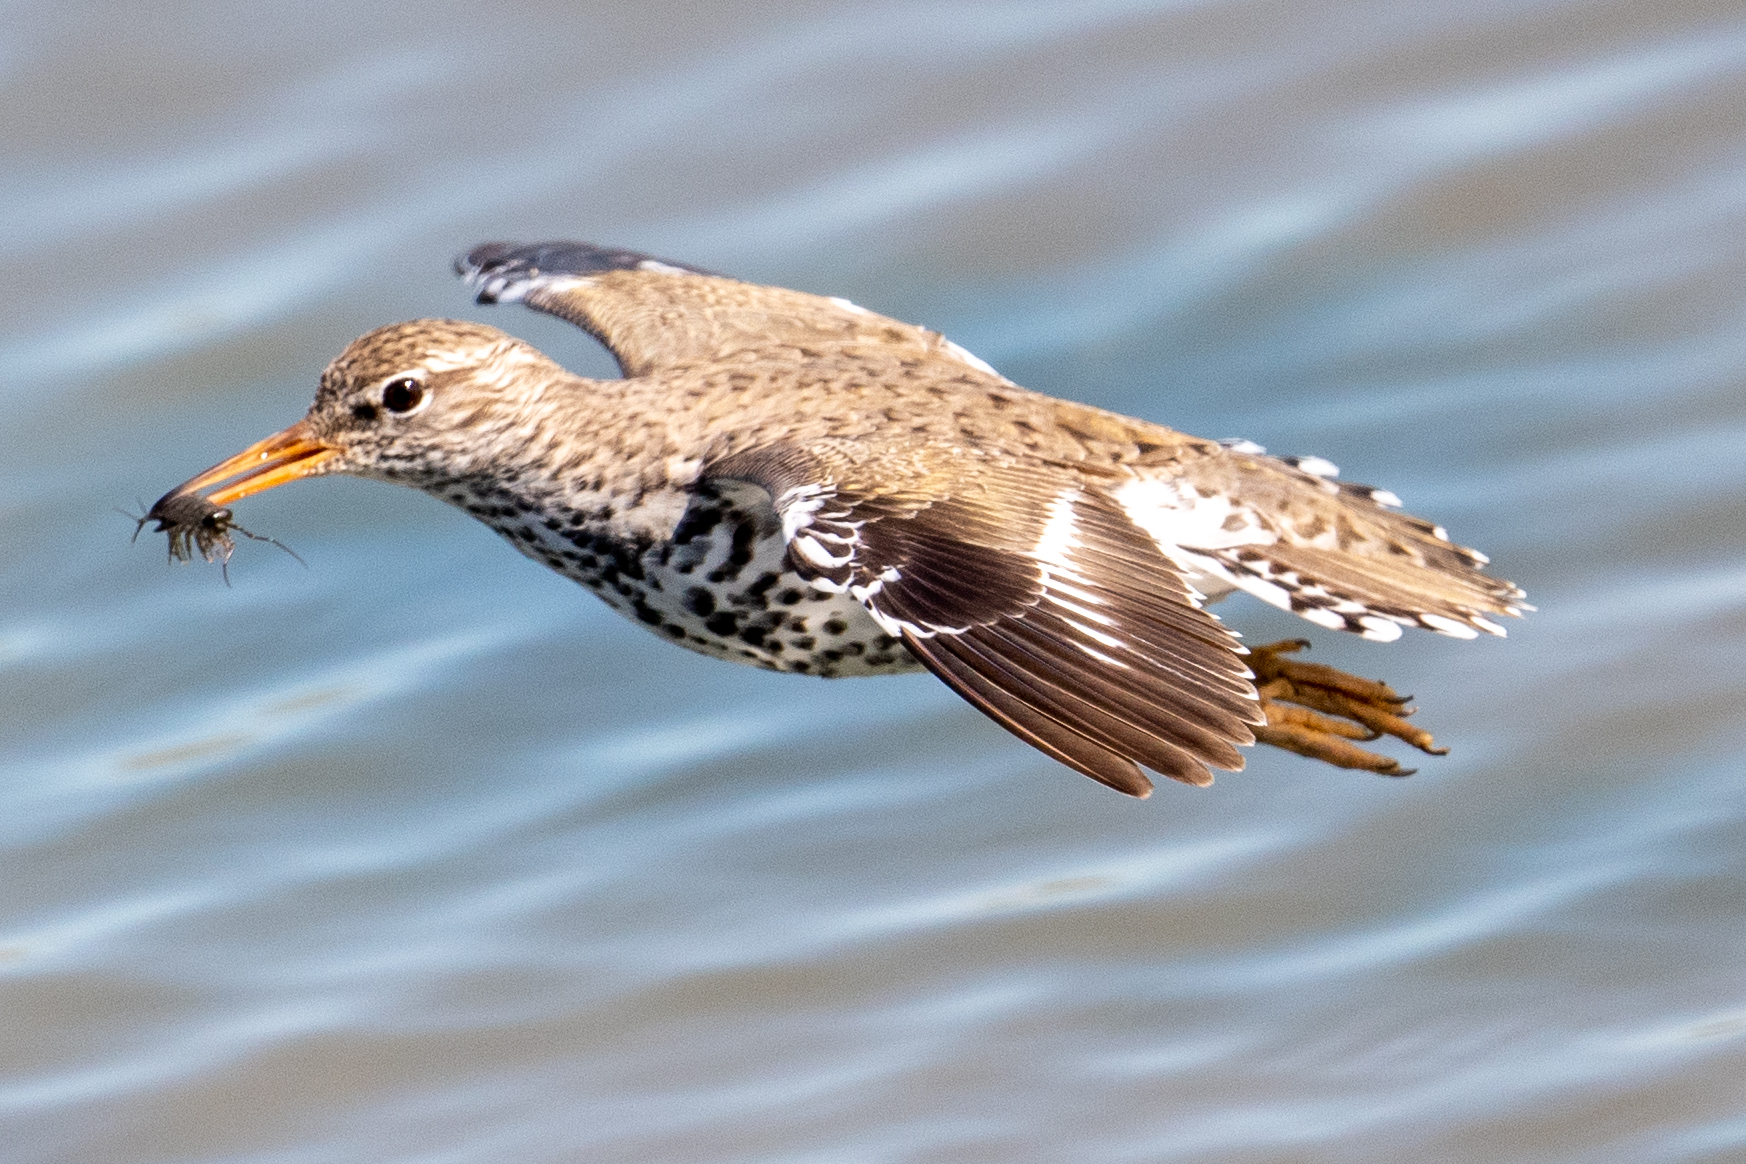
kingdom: Animalia
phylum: Chordata
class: Aves
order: Charadriiformes
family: Scolopacidae
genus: Actitis
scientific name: Actitis macularius
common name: Spotted sandpiper
